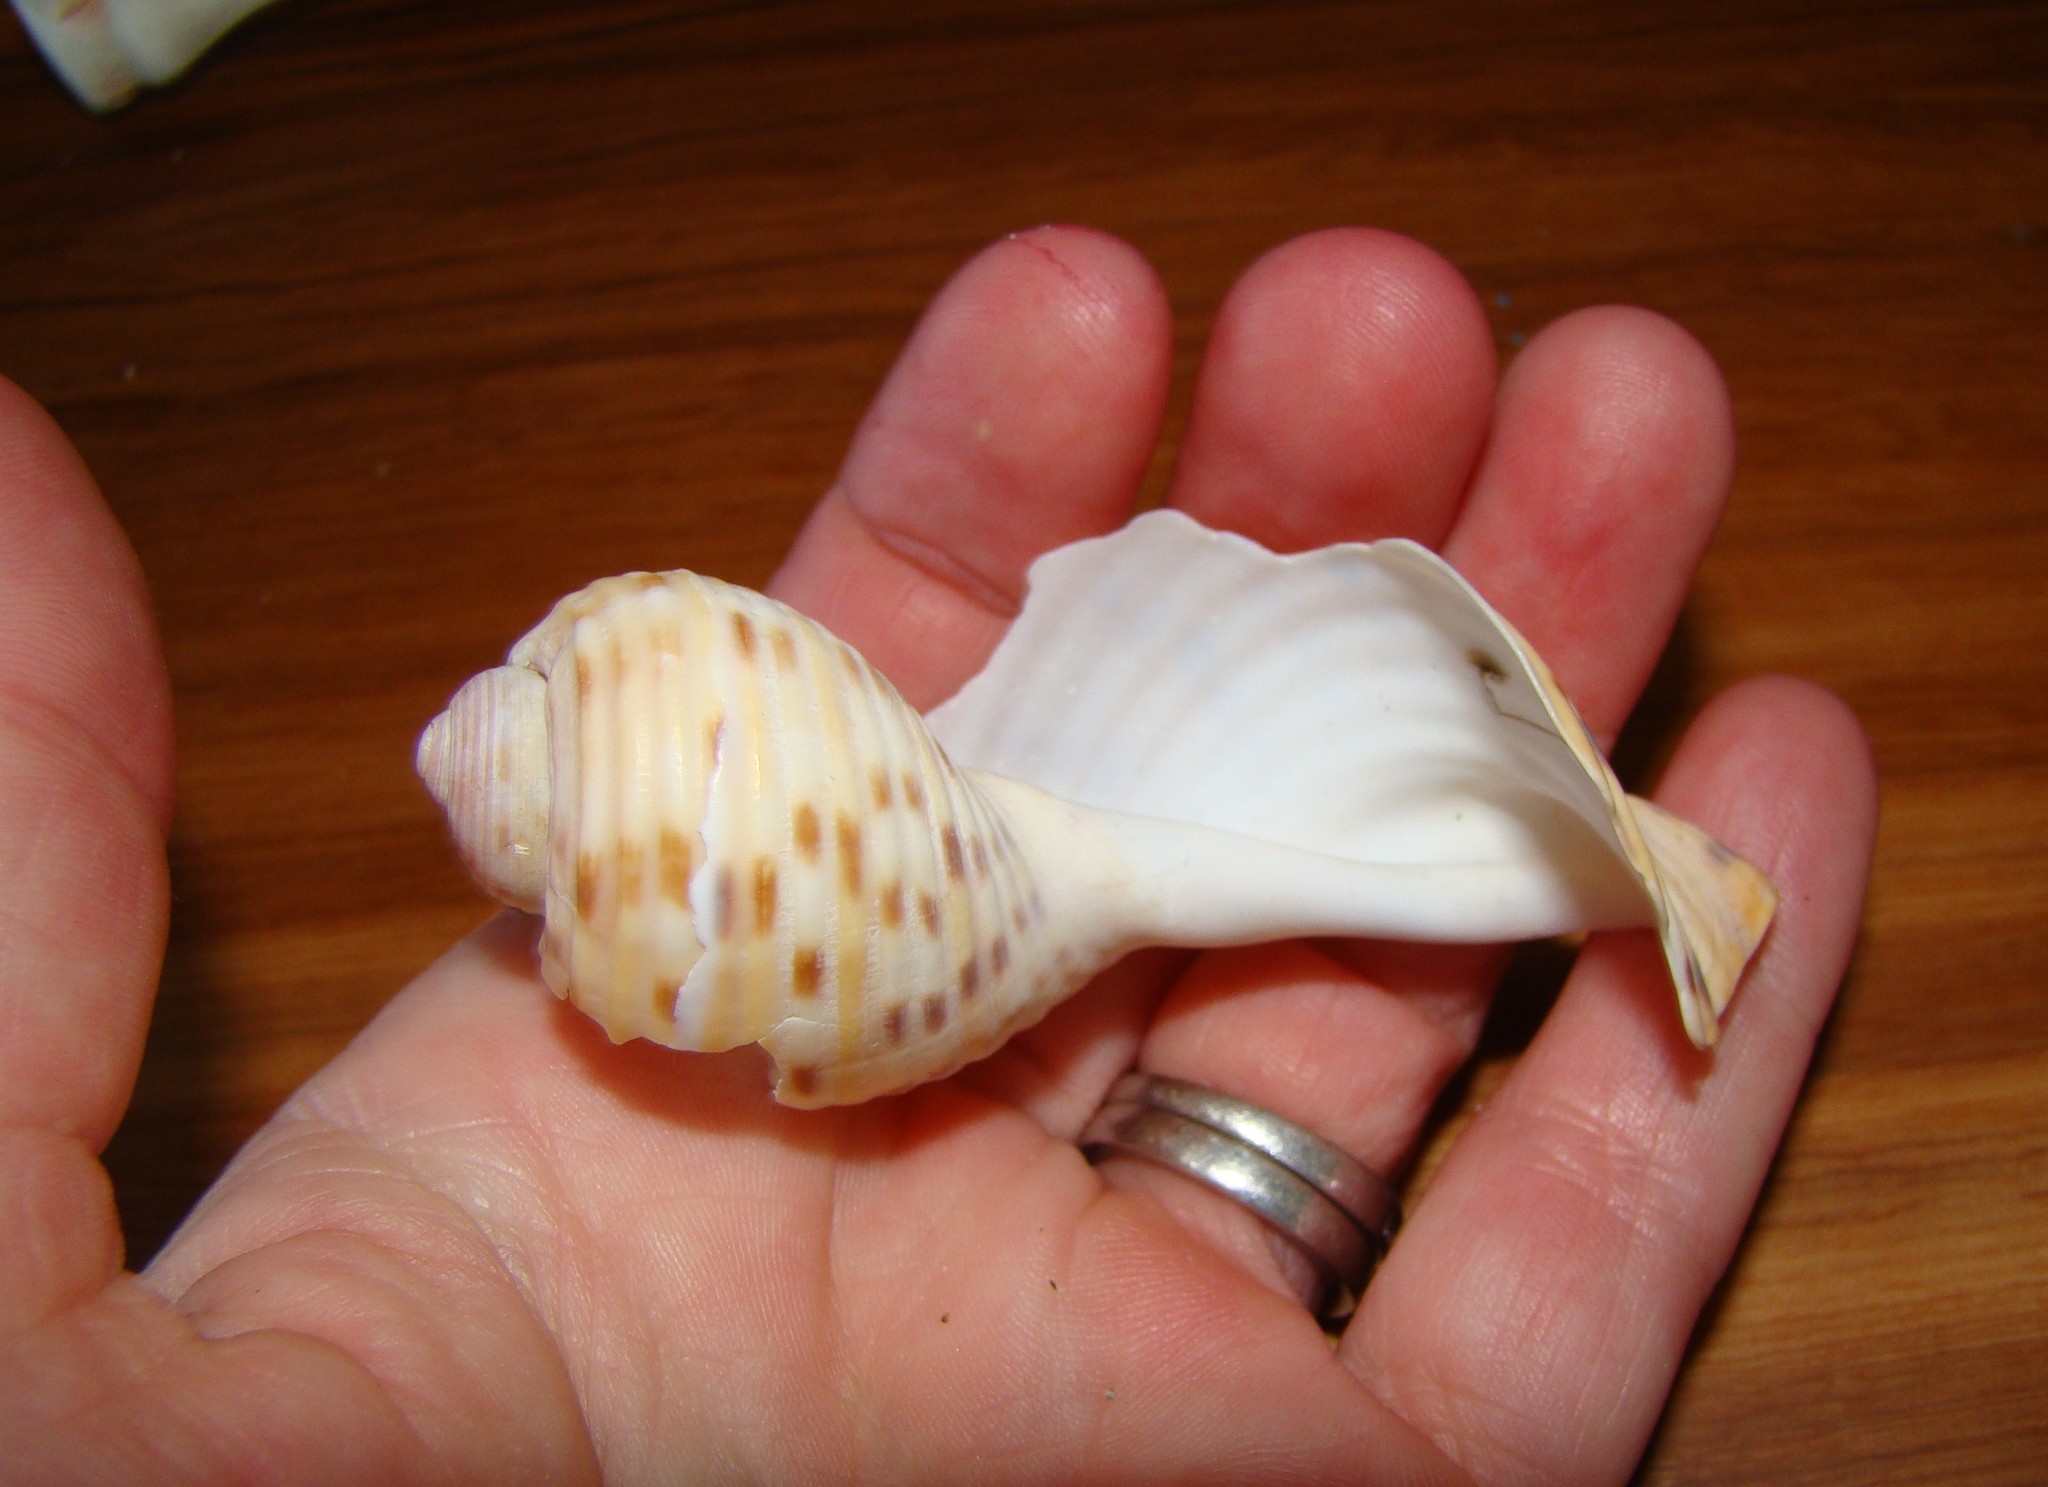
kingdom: Animalia
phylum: Mollusca
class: Gastropoda
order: Littorinimorpha
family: Tonnidae
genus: Tonna
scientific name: Tonna tankervillii
